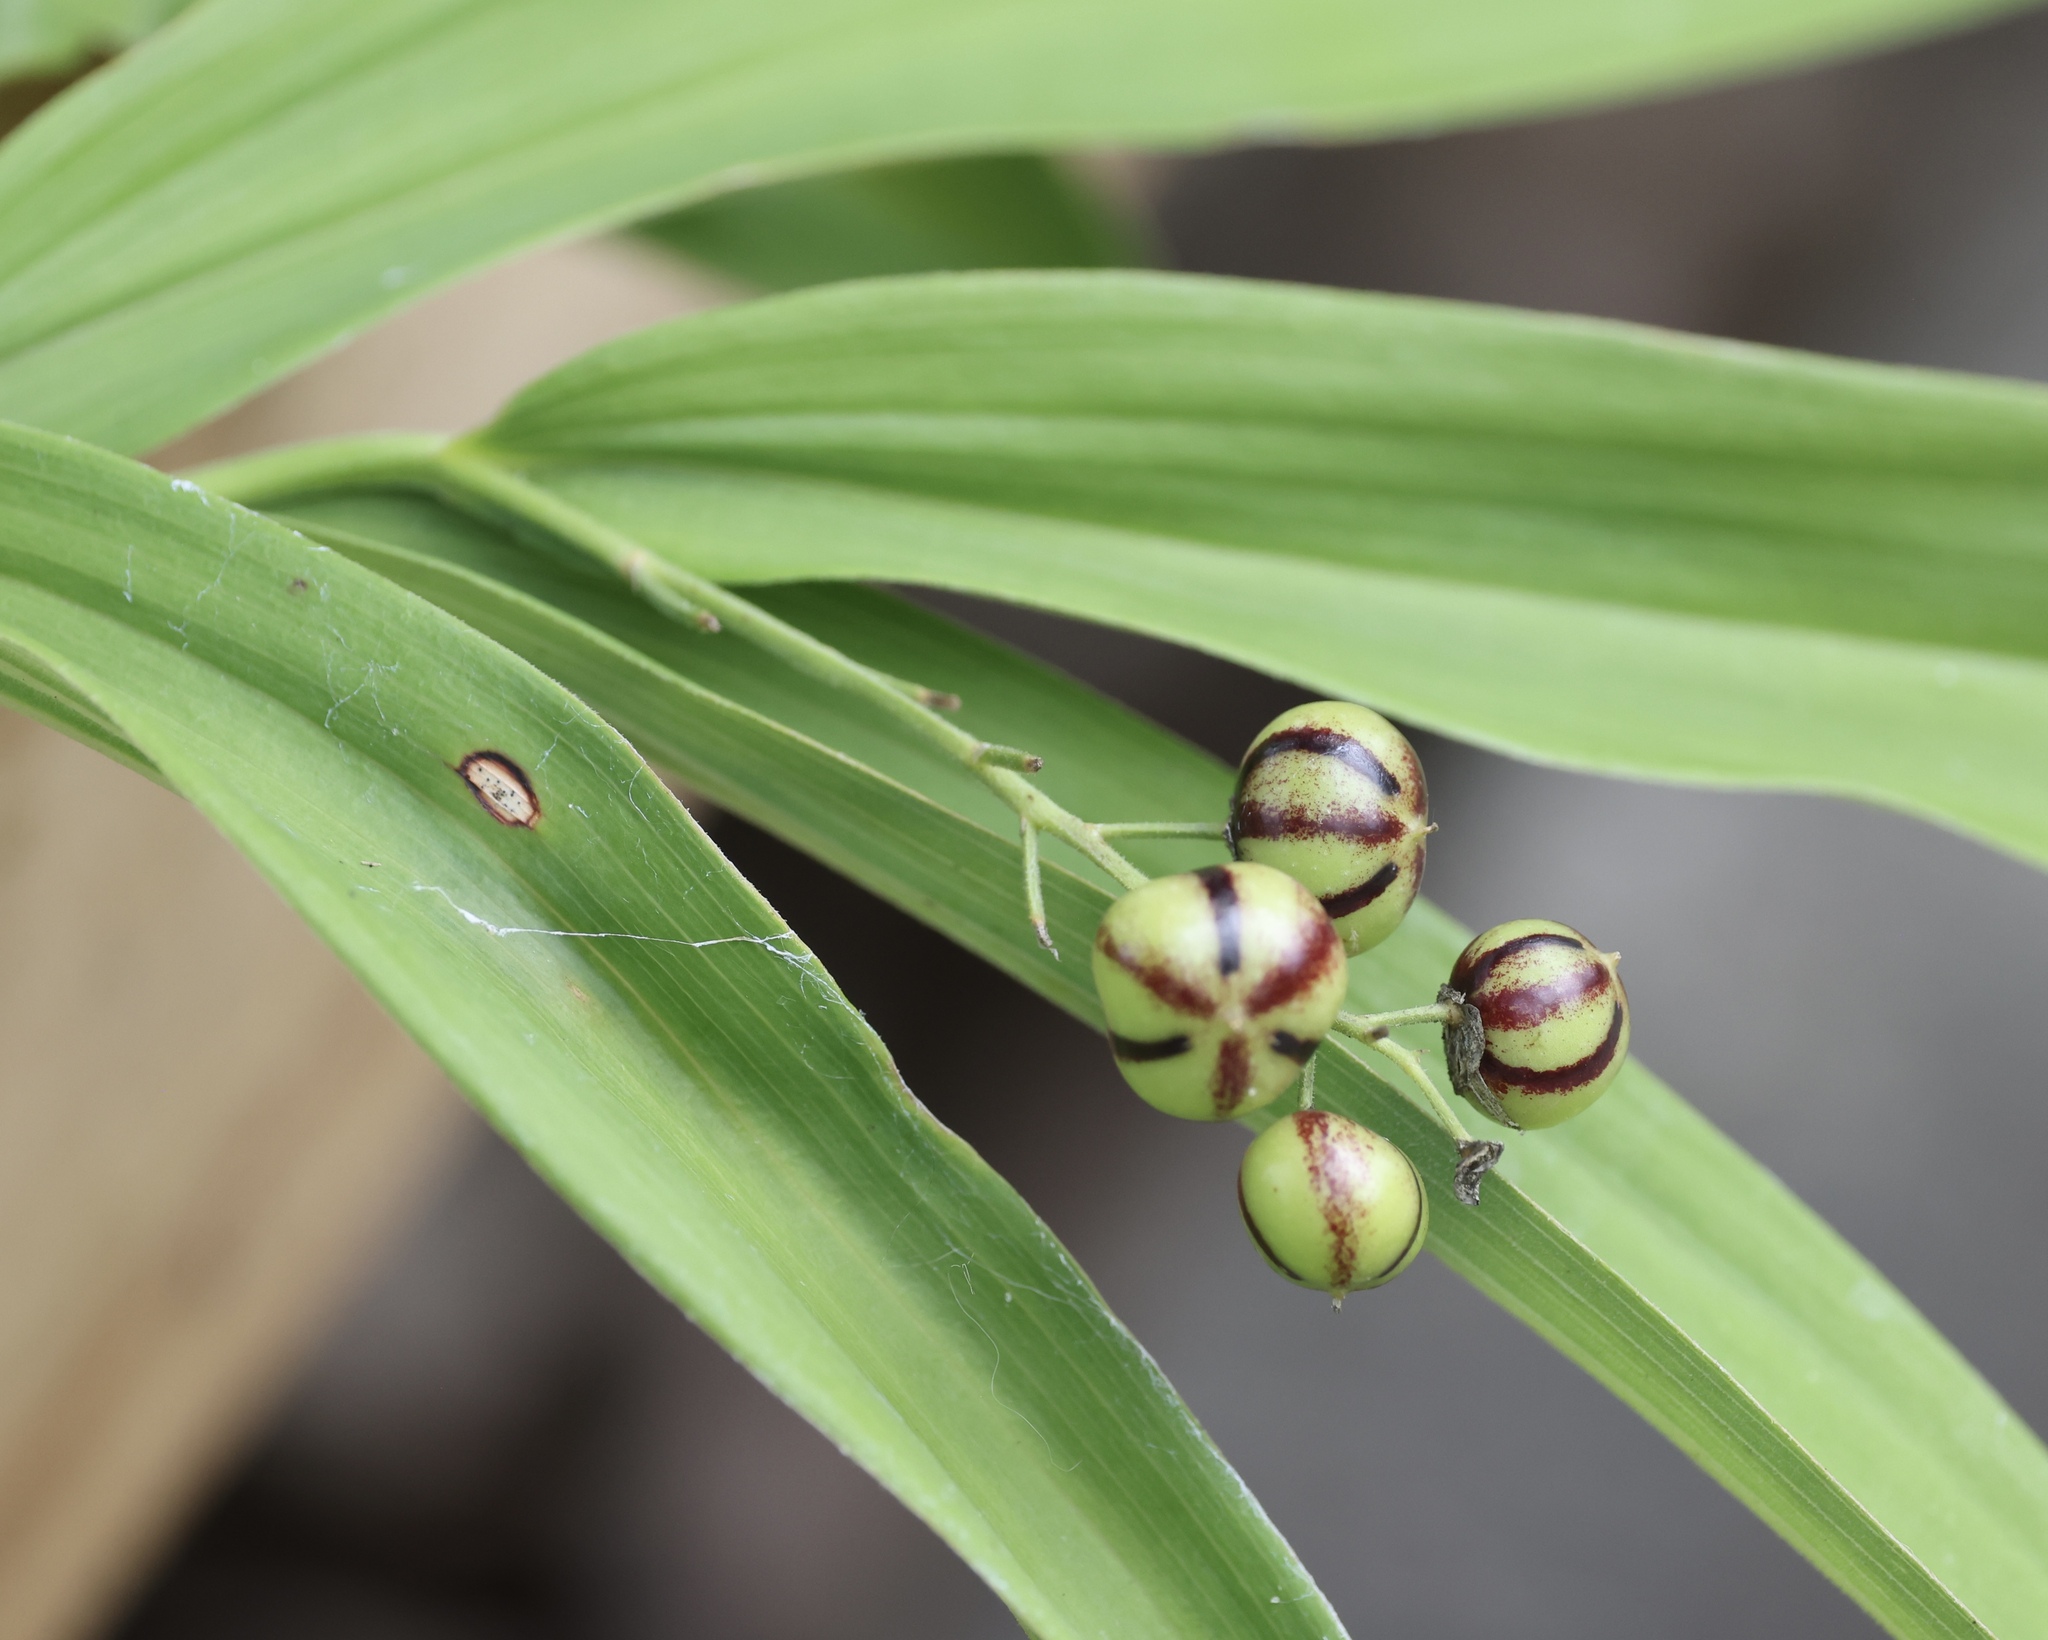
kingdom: Plantae
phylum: Tracheophyta
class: Liliopsida
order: Asparagales
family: Asparagaceae
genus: Maianthemum
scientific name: Maianthemum stellatum
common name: Little false solomon's seal
